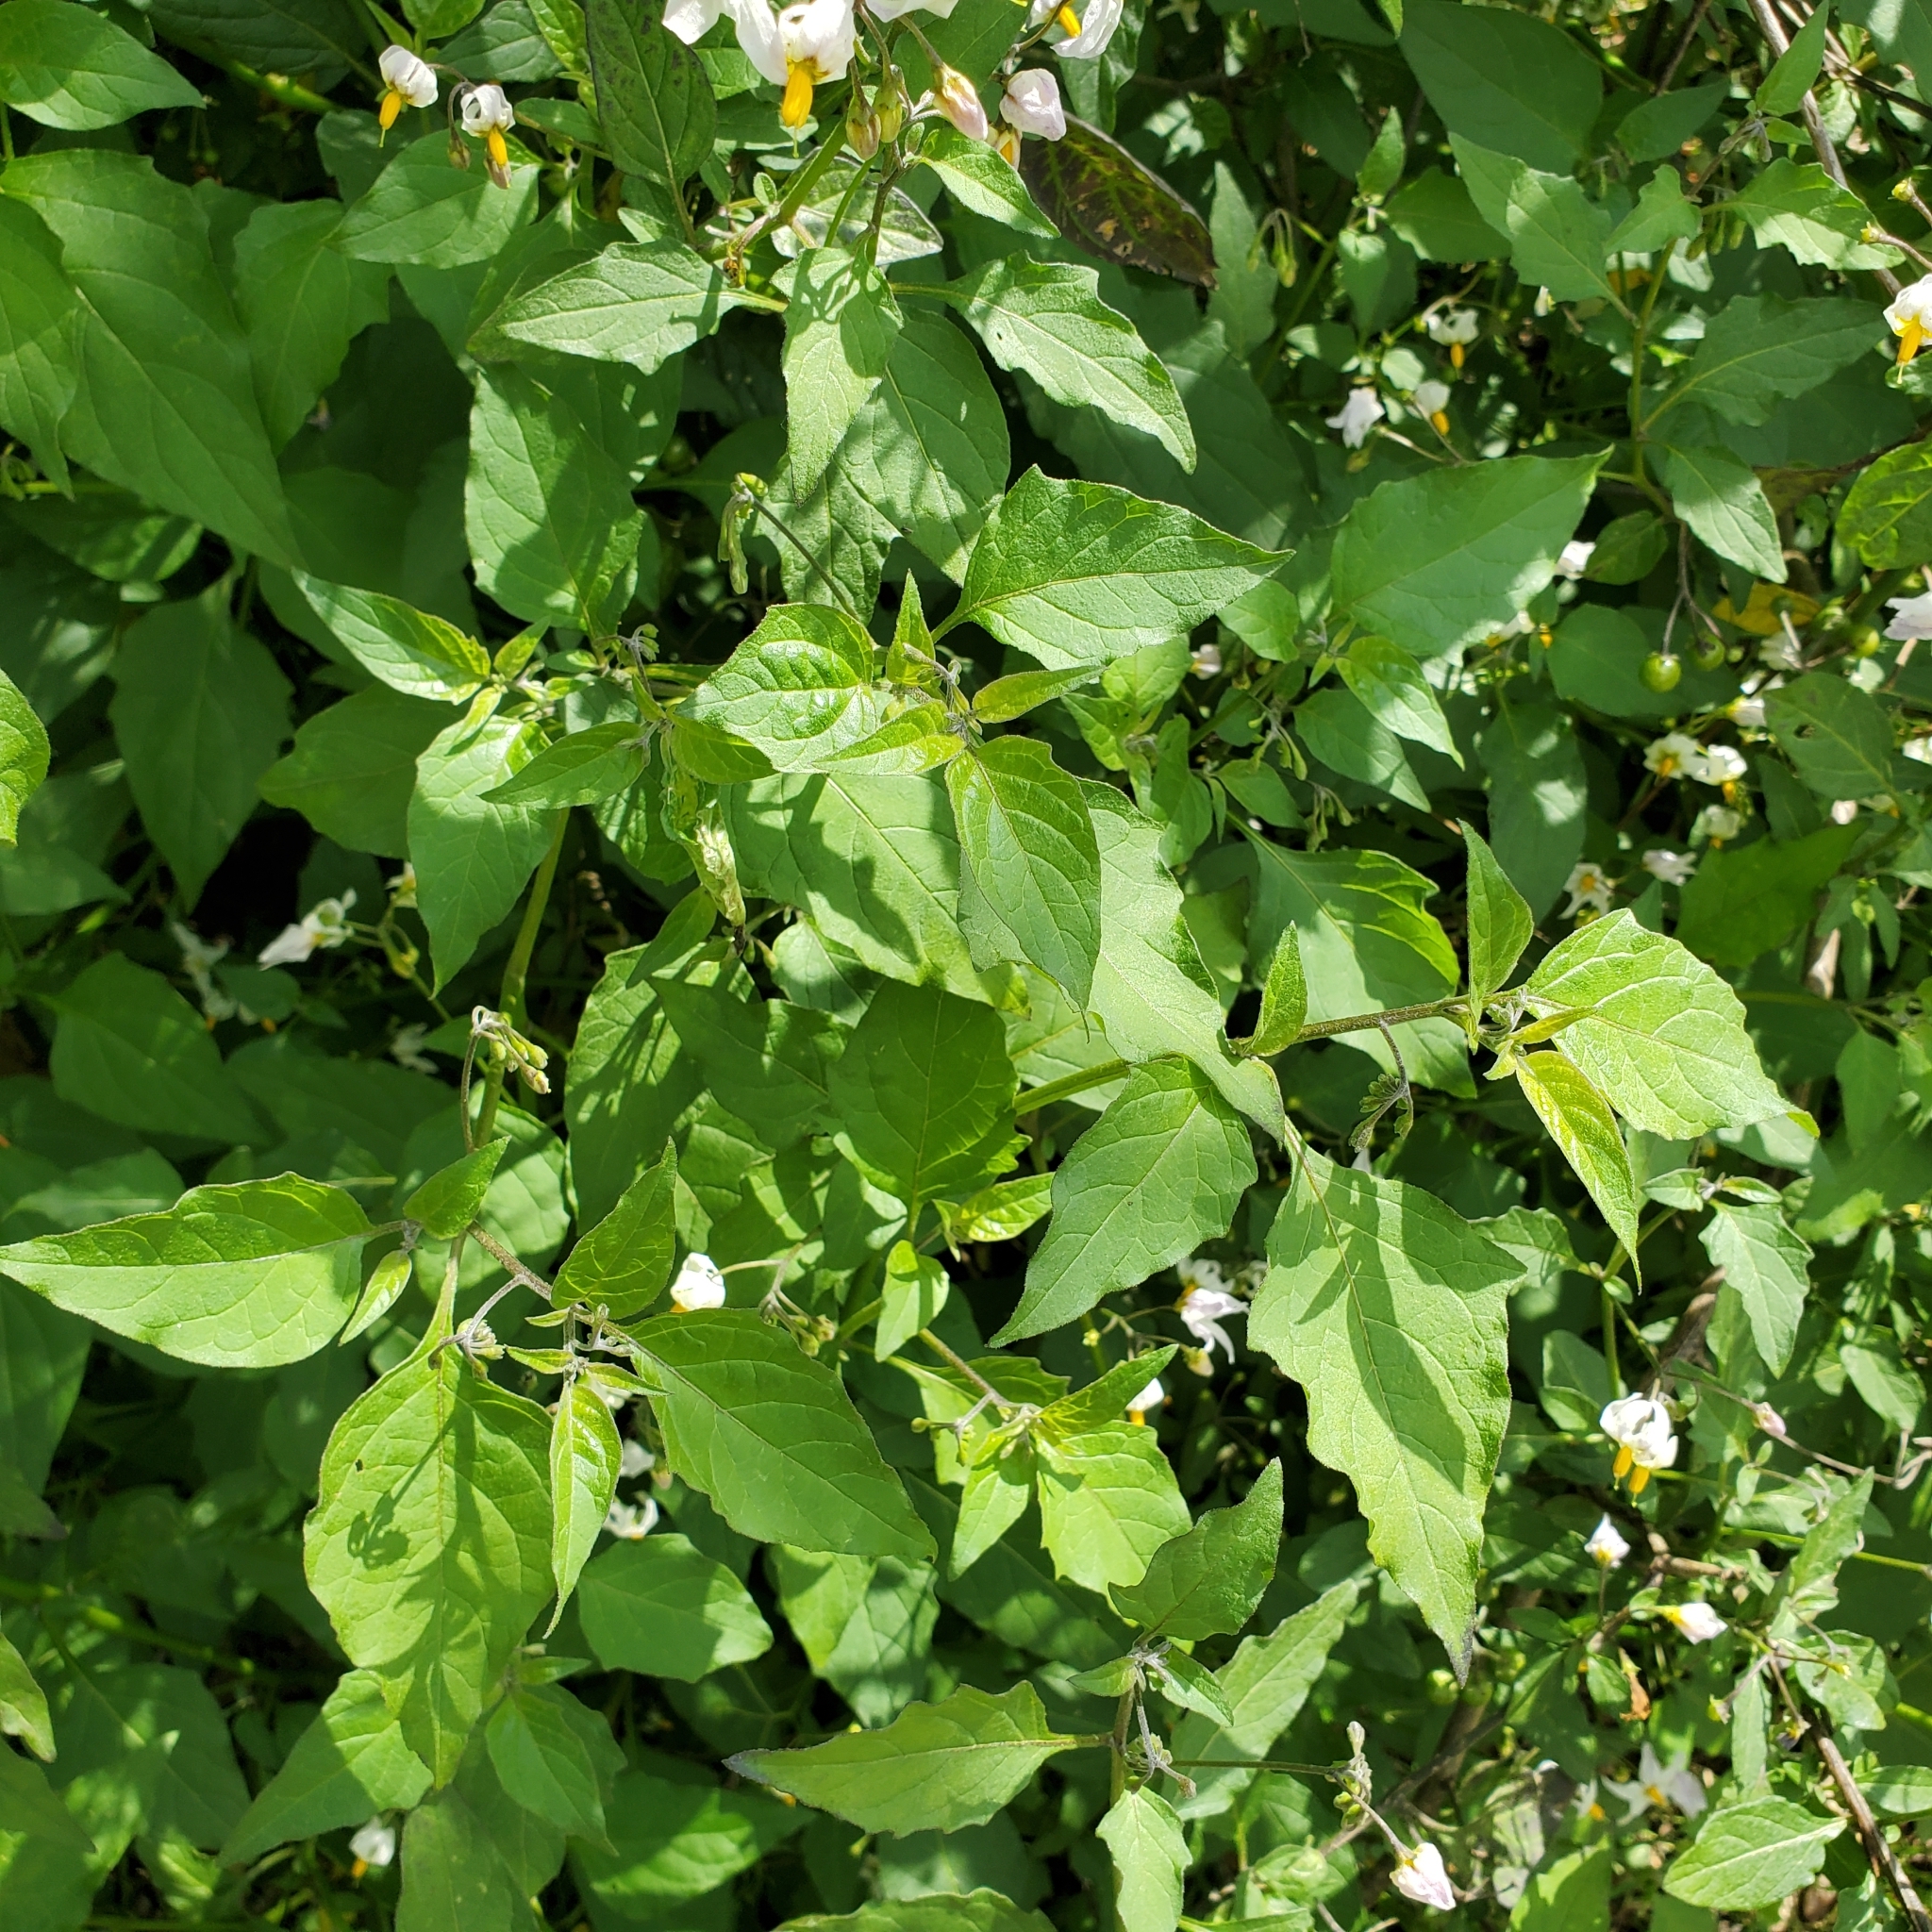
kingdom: Plantae
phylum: Tracheophyta
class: Magnoliopsida
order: Solanales
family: Solanaceae
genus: Solanum
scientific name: Solanum douglasii
